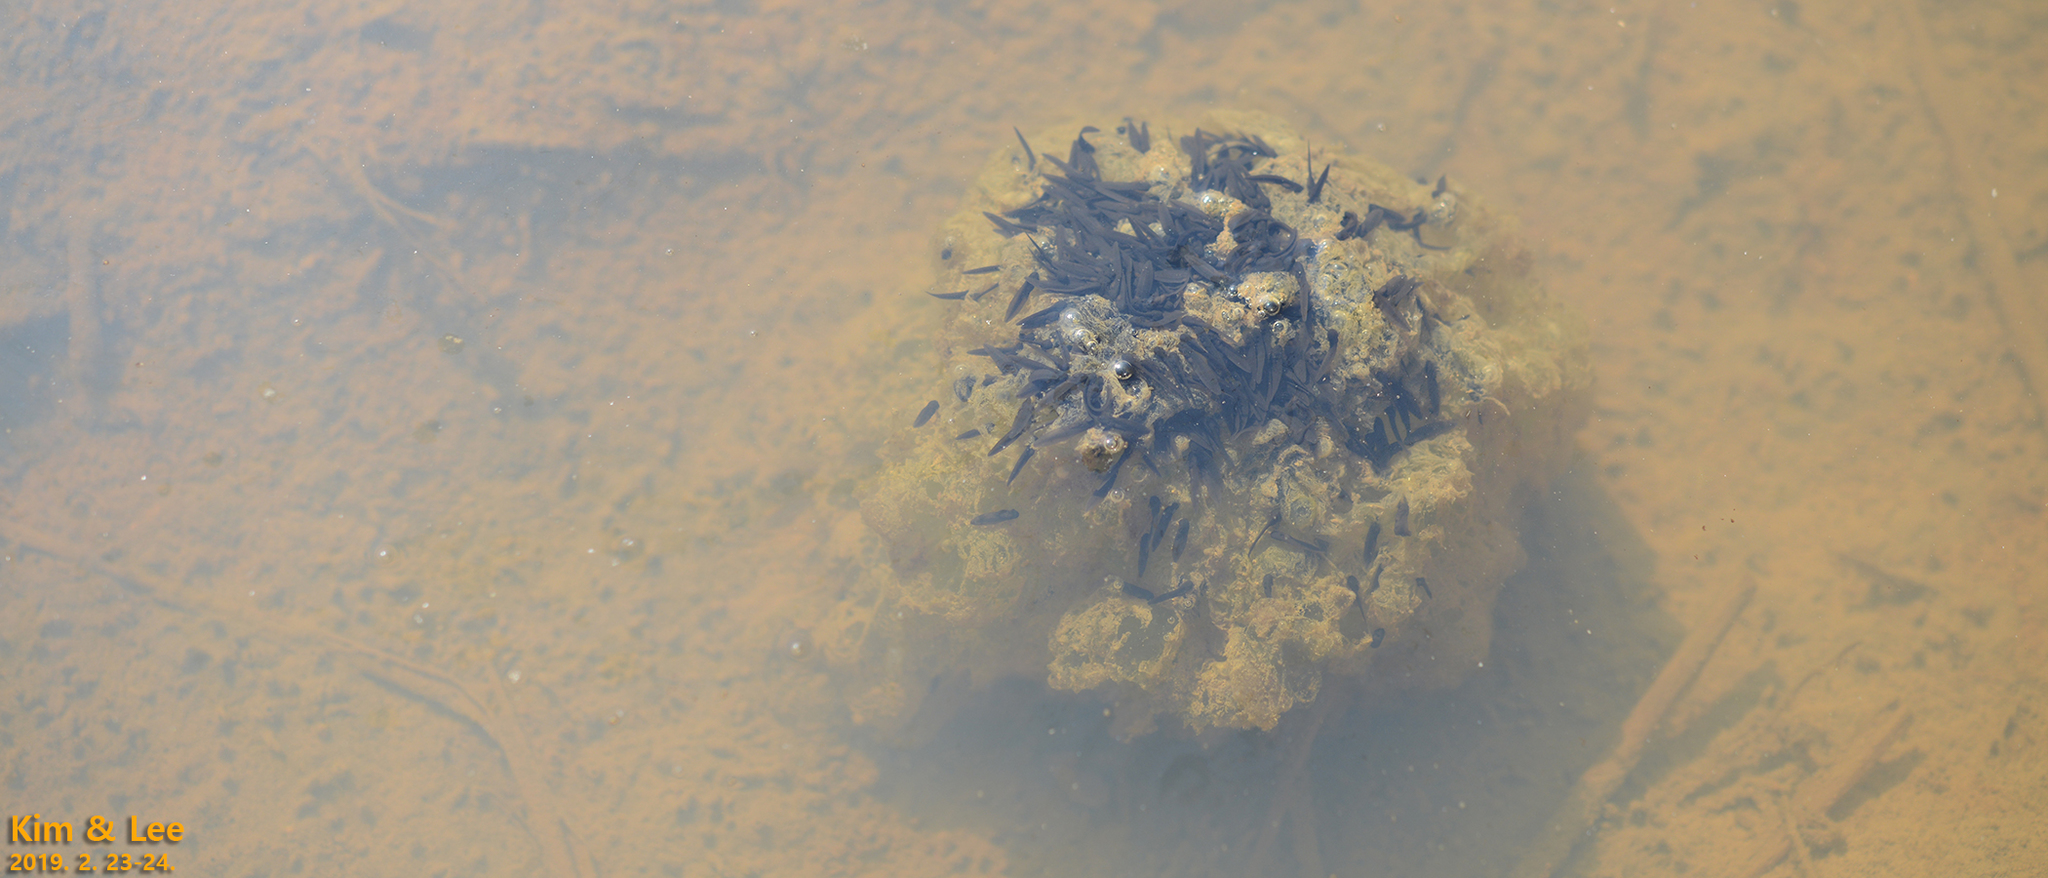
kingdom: Animalia
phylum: Chordata
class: Amphibia
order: Anura
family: Ranidae
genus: Rana
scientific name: Rana uenoi
